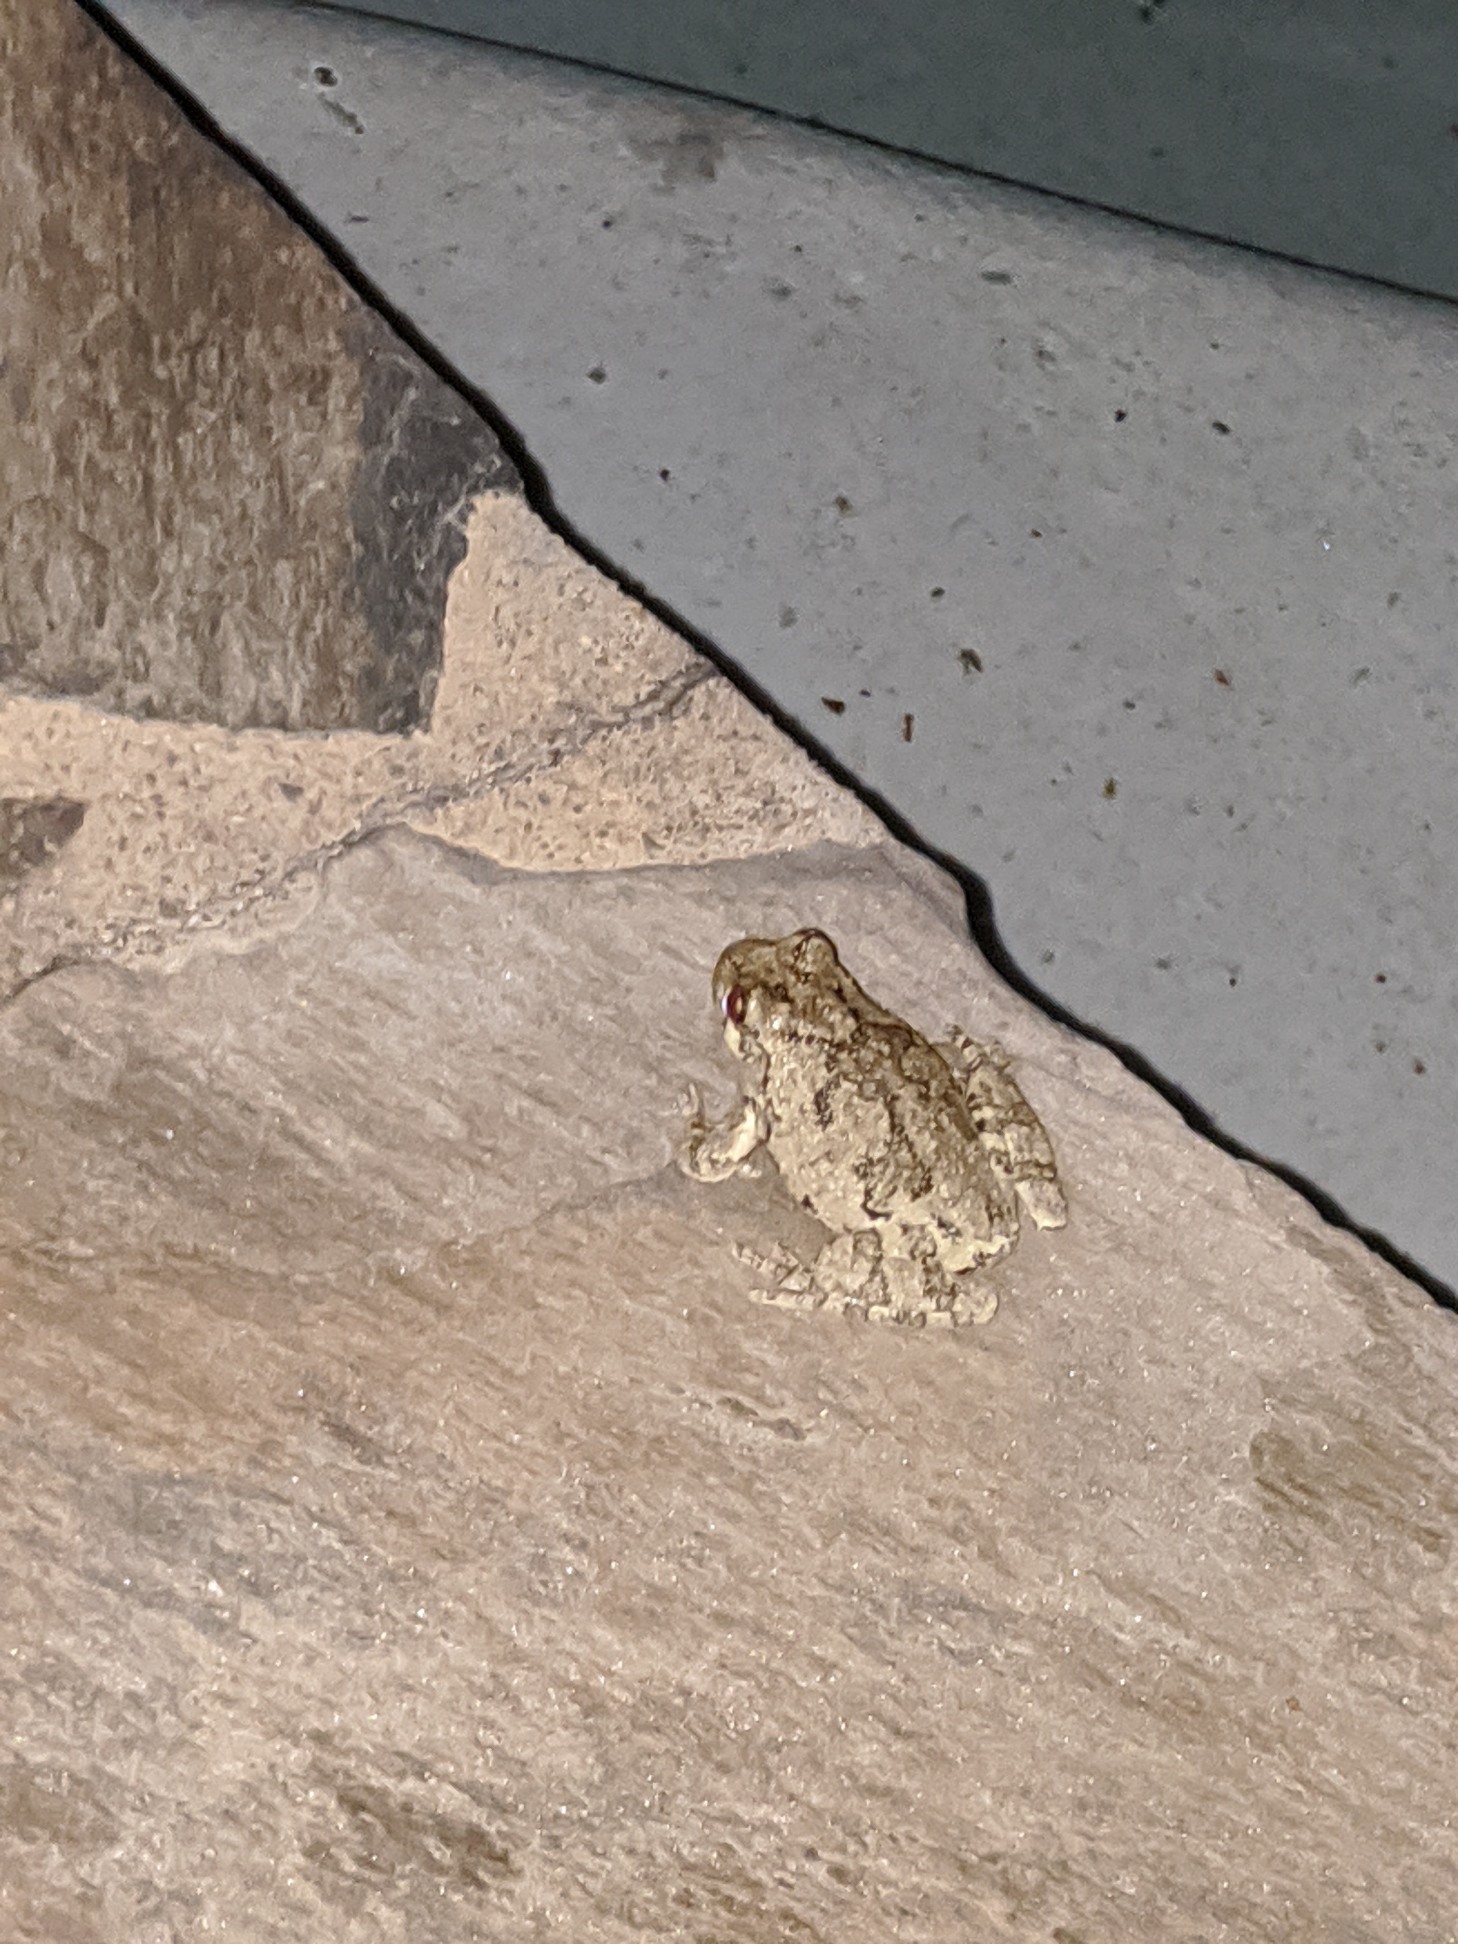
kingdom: Animalia
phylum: Chordata
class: Amphibia
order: Anura
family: Hylidae
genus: Dryophytes
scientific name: Dryophytes chrysoscelis
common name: Cope's gray treefrog
